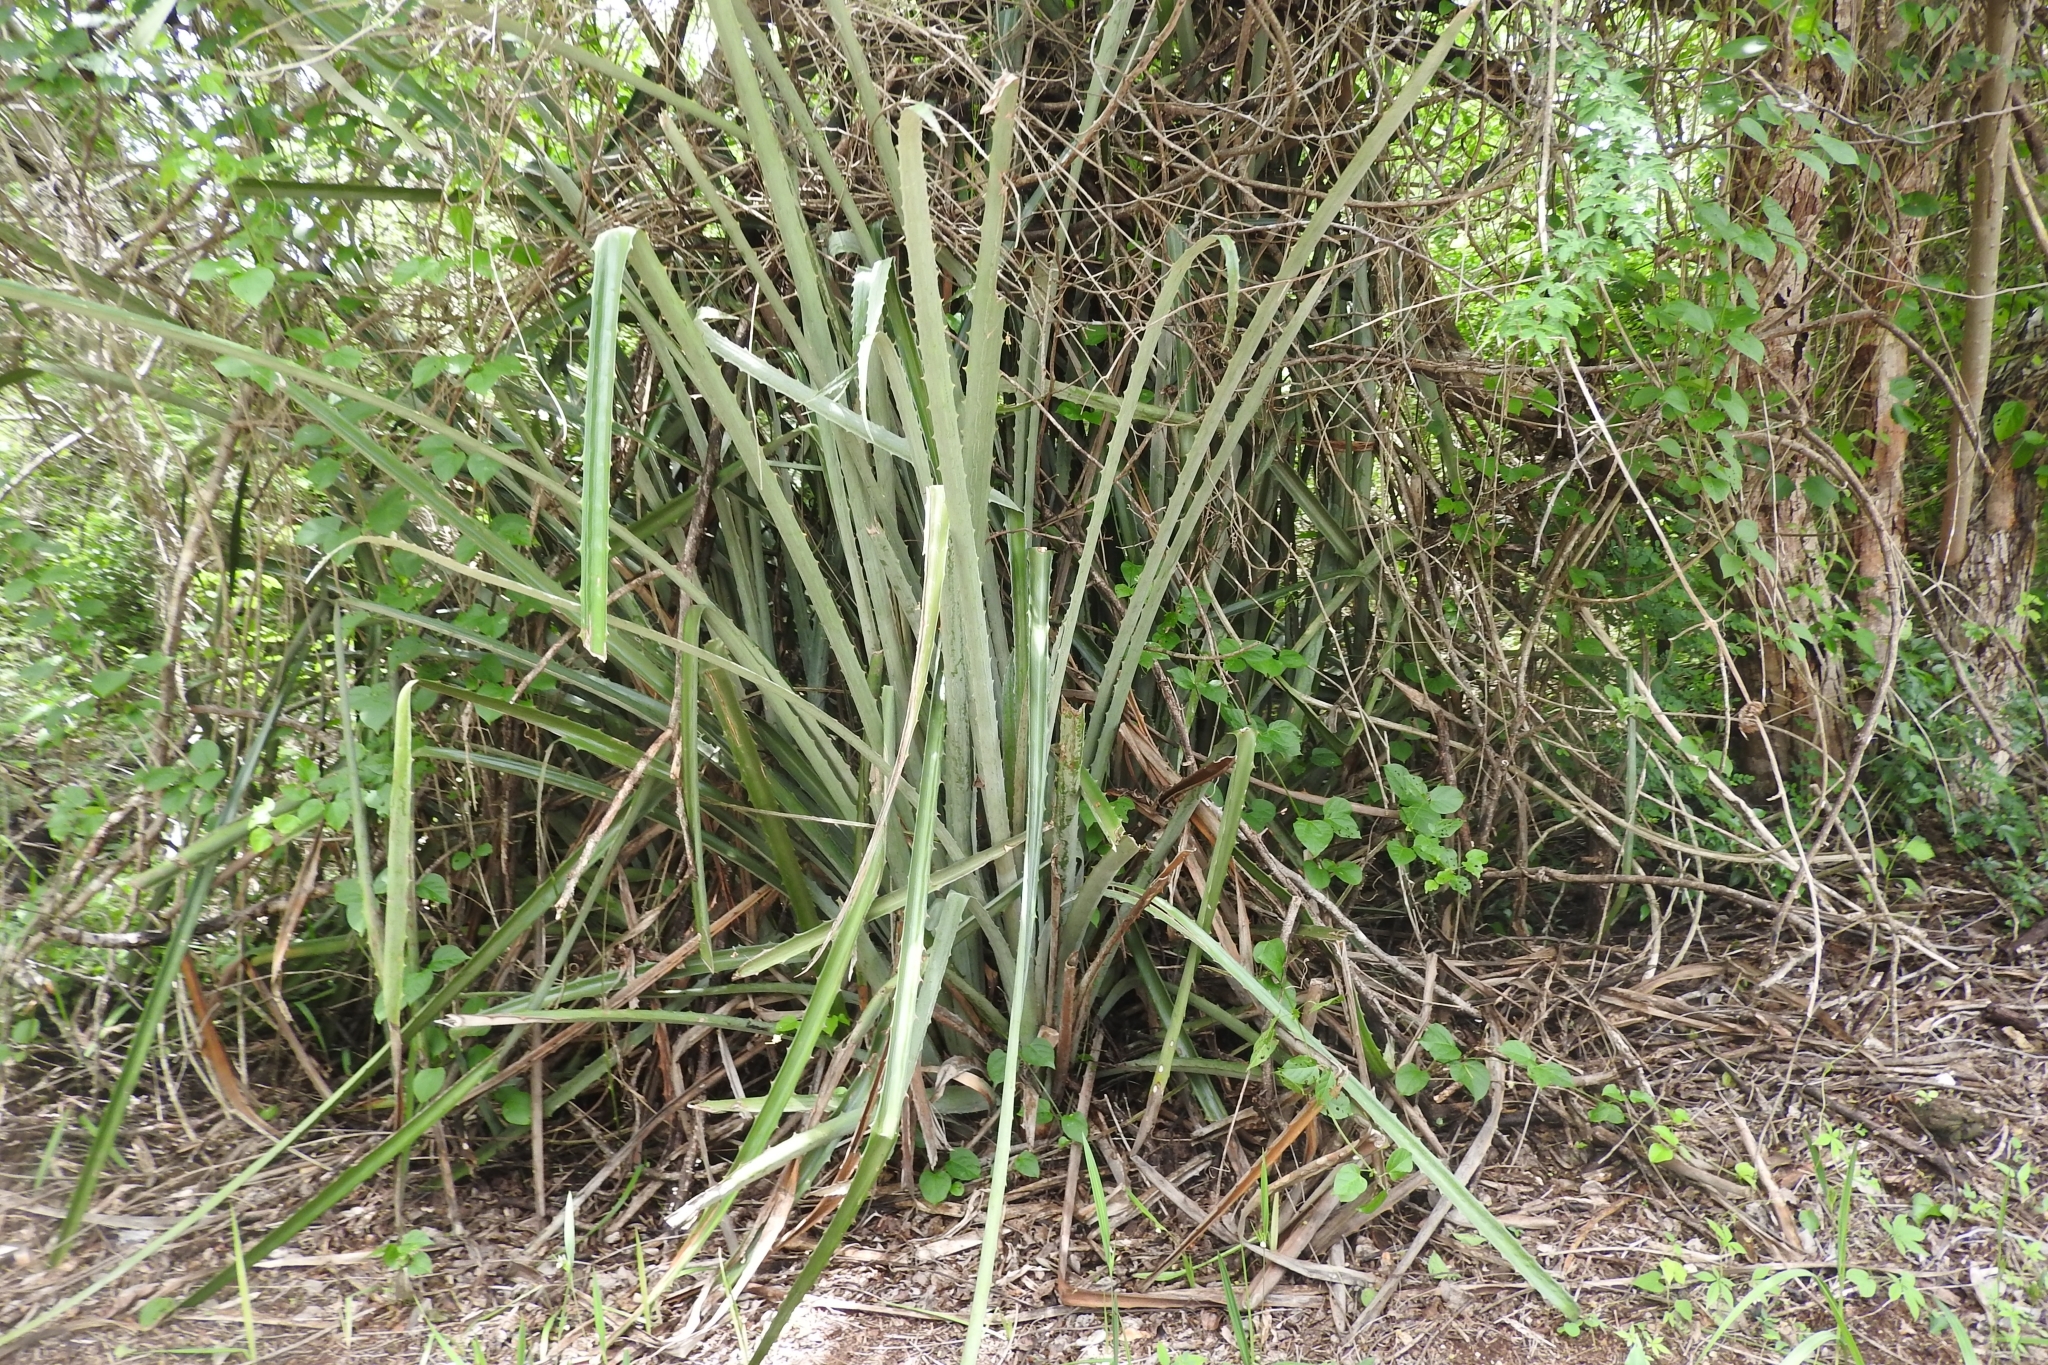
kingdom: Plantae
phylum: Tracheophyta
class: Liliopsida
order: Poales
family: Bromeliaceae
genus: Bromelia
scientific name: Bromelia pinguin
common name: Pinguin
